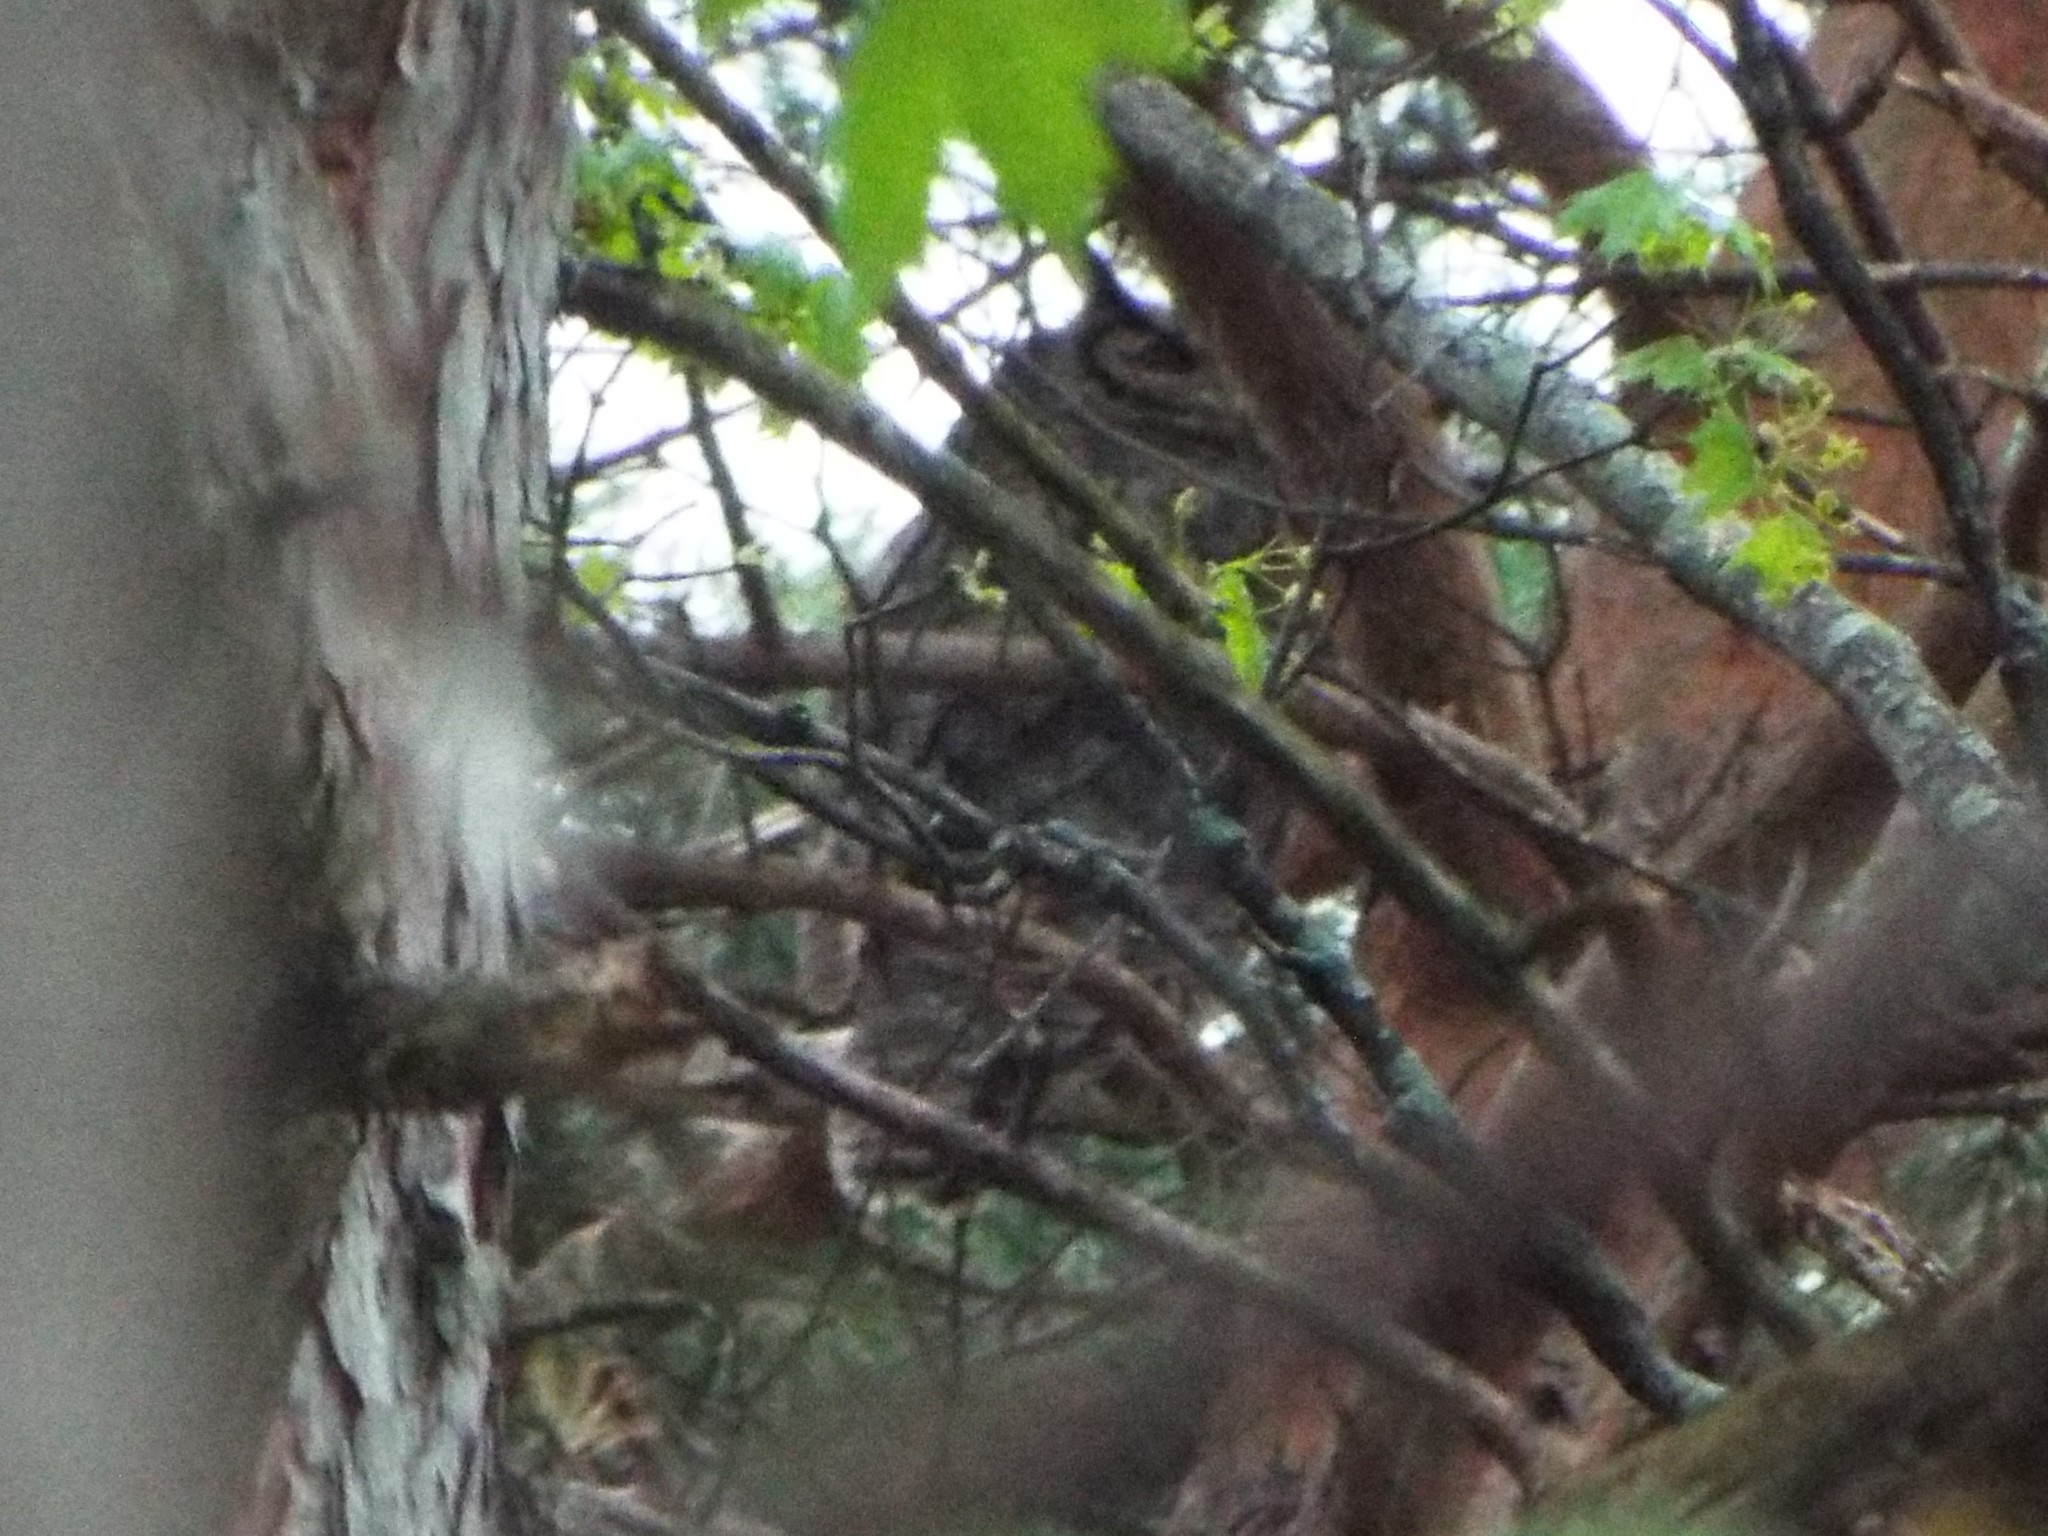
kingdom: Animalia
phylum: Chordata
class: Aves
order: Strigiformes
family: Strigidae
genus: Bubo
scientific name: Bubo virginianus
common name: Great horned owl
